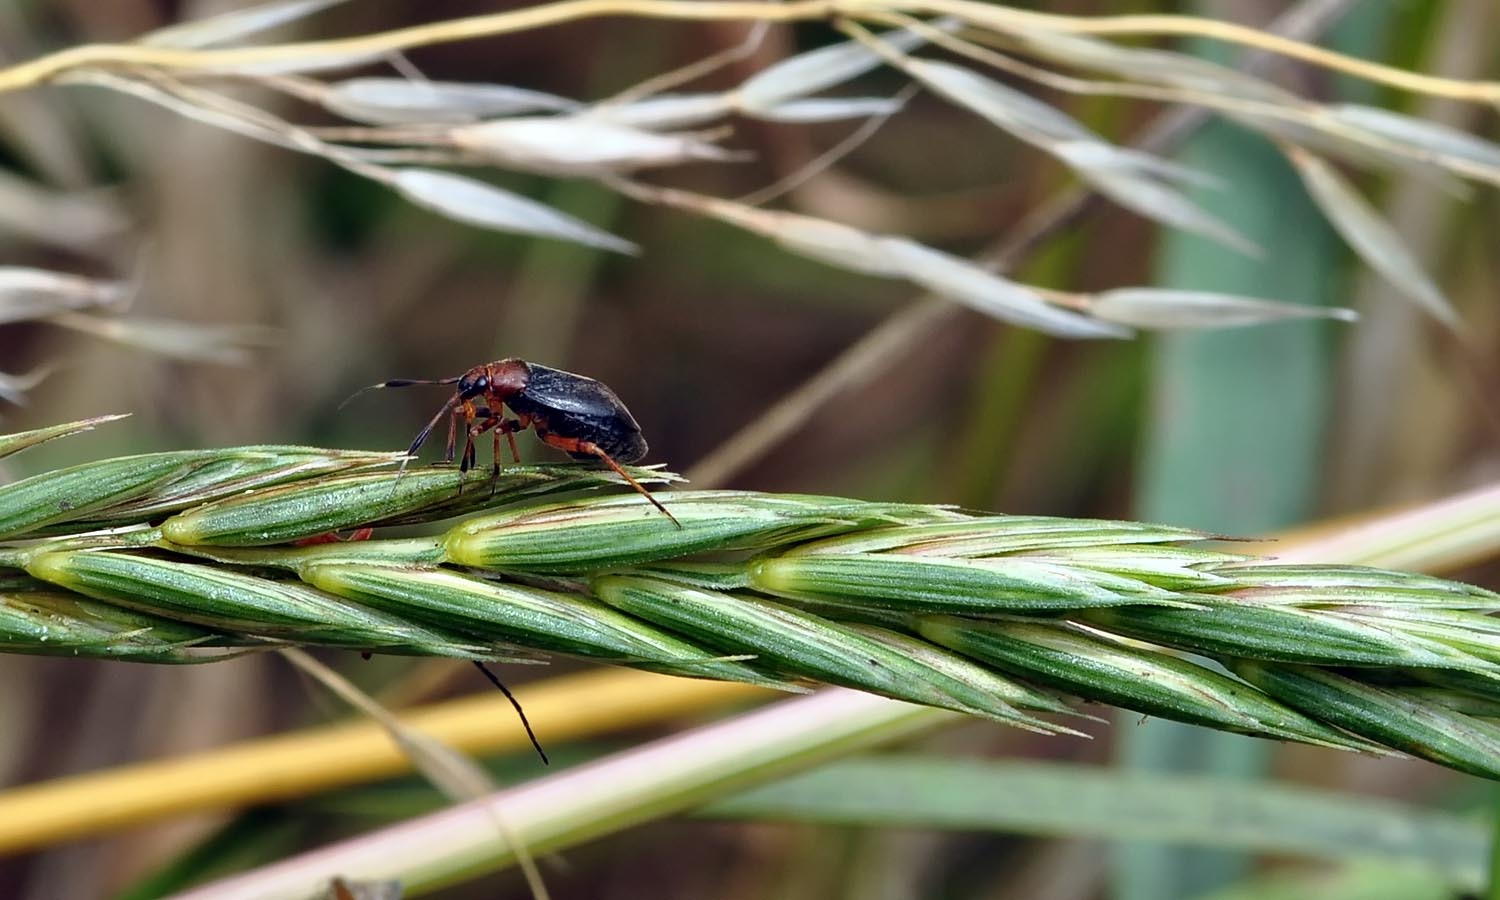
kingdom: Animalia
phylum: Arthropoda
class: Insecta
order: Hemiptera
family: Miridae
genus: Capsus
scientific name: Capsus ater
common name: Black plant bug
